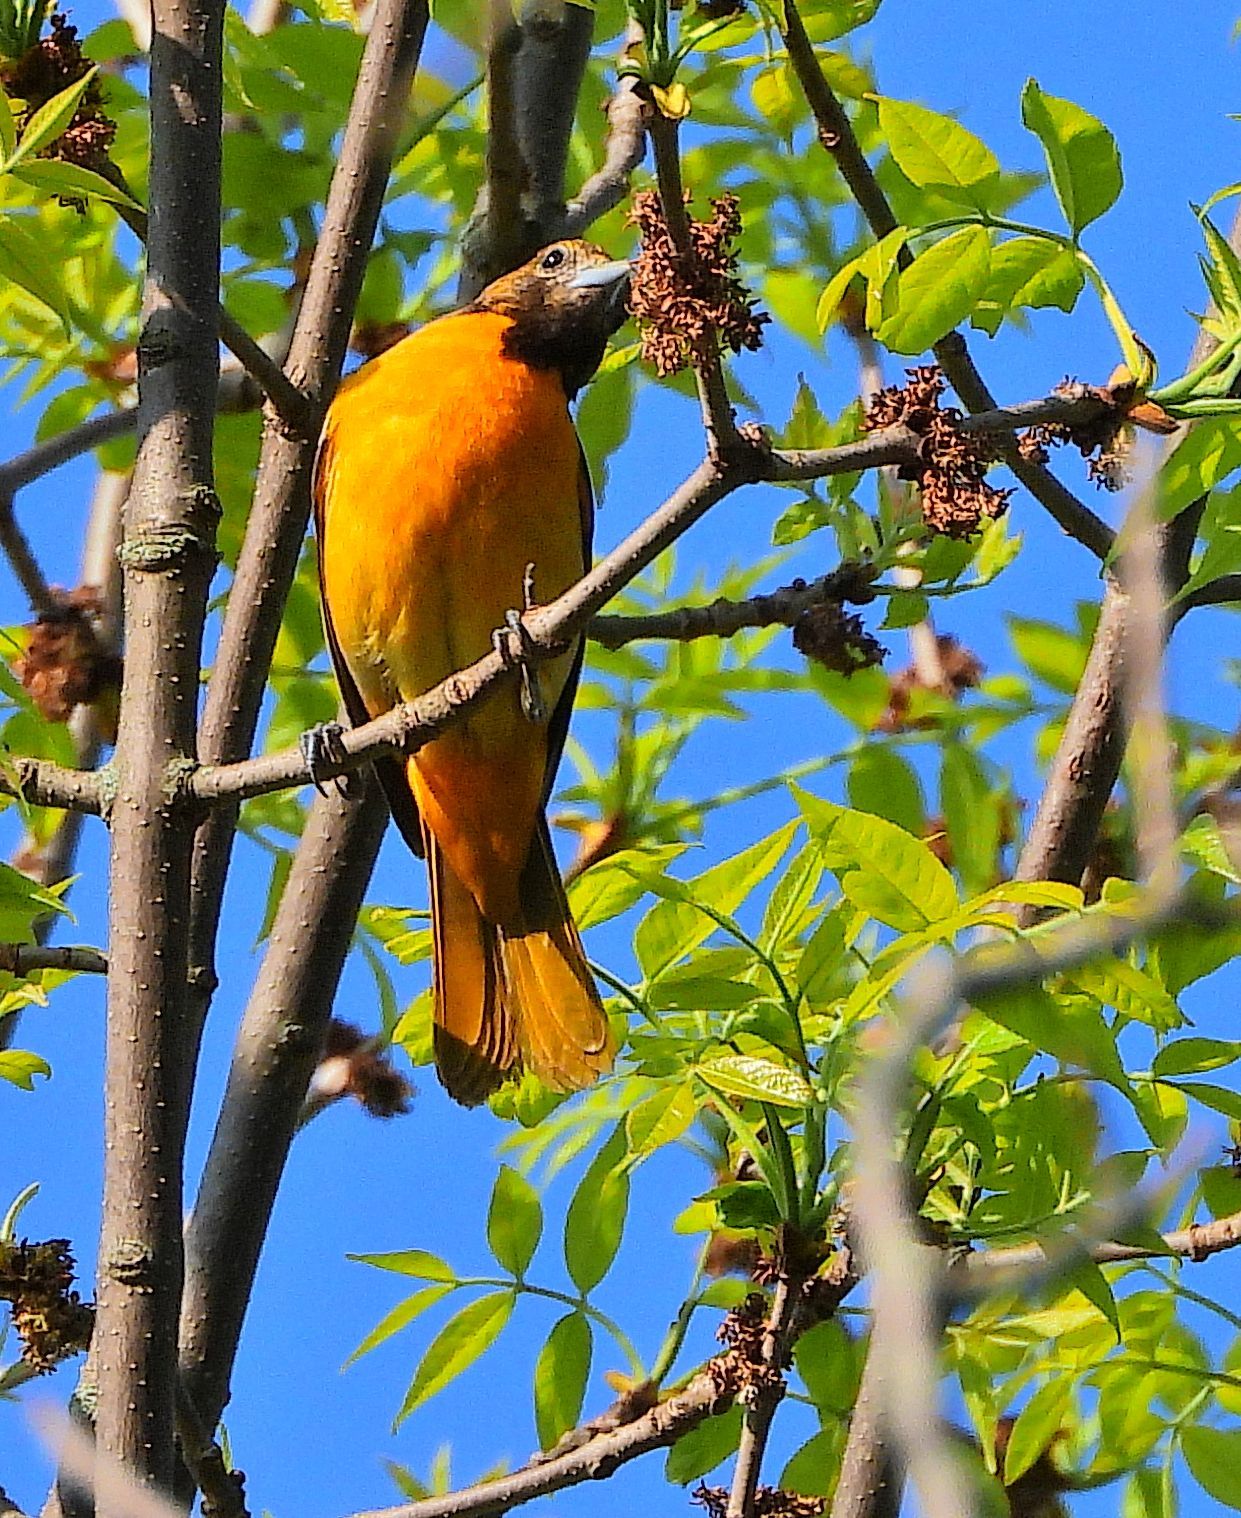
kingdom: Animalia
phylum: Chordata
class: Aves
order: Passeriformes
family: Icteridae
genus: Icterus
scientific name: Icterus galbula
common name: Baltimore oriole
